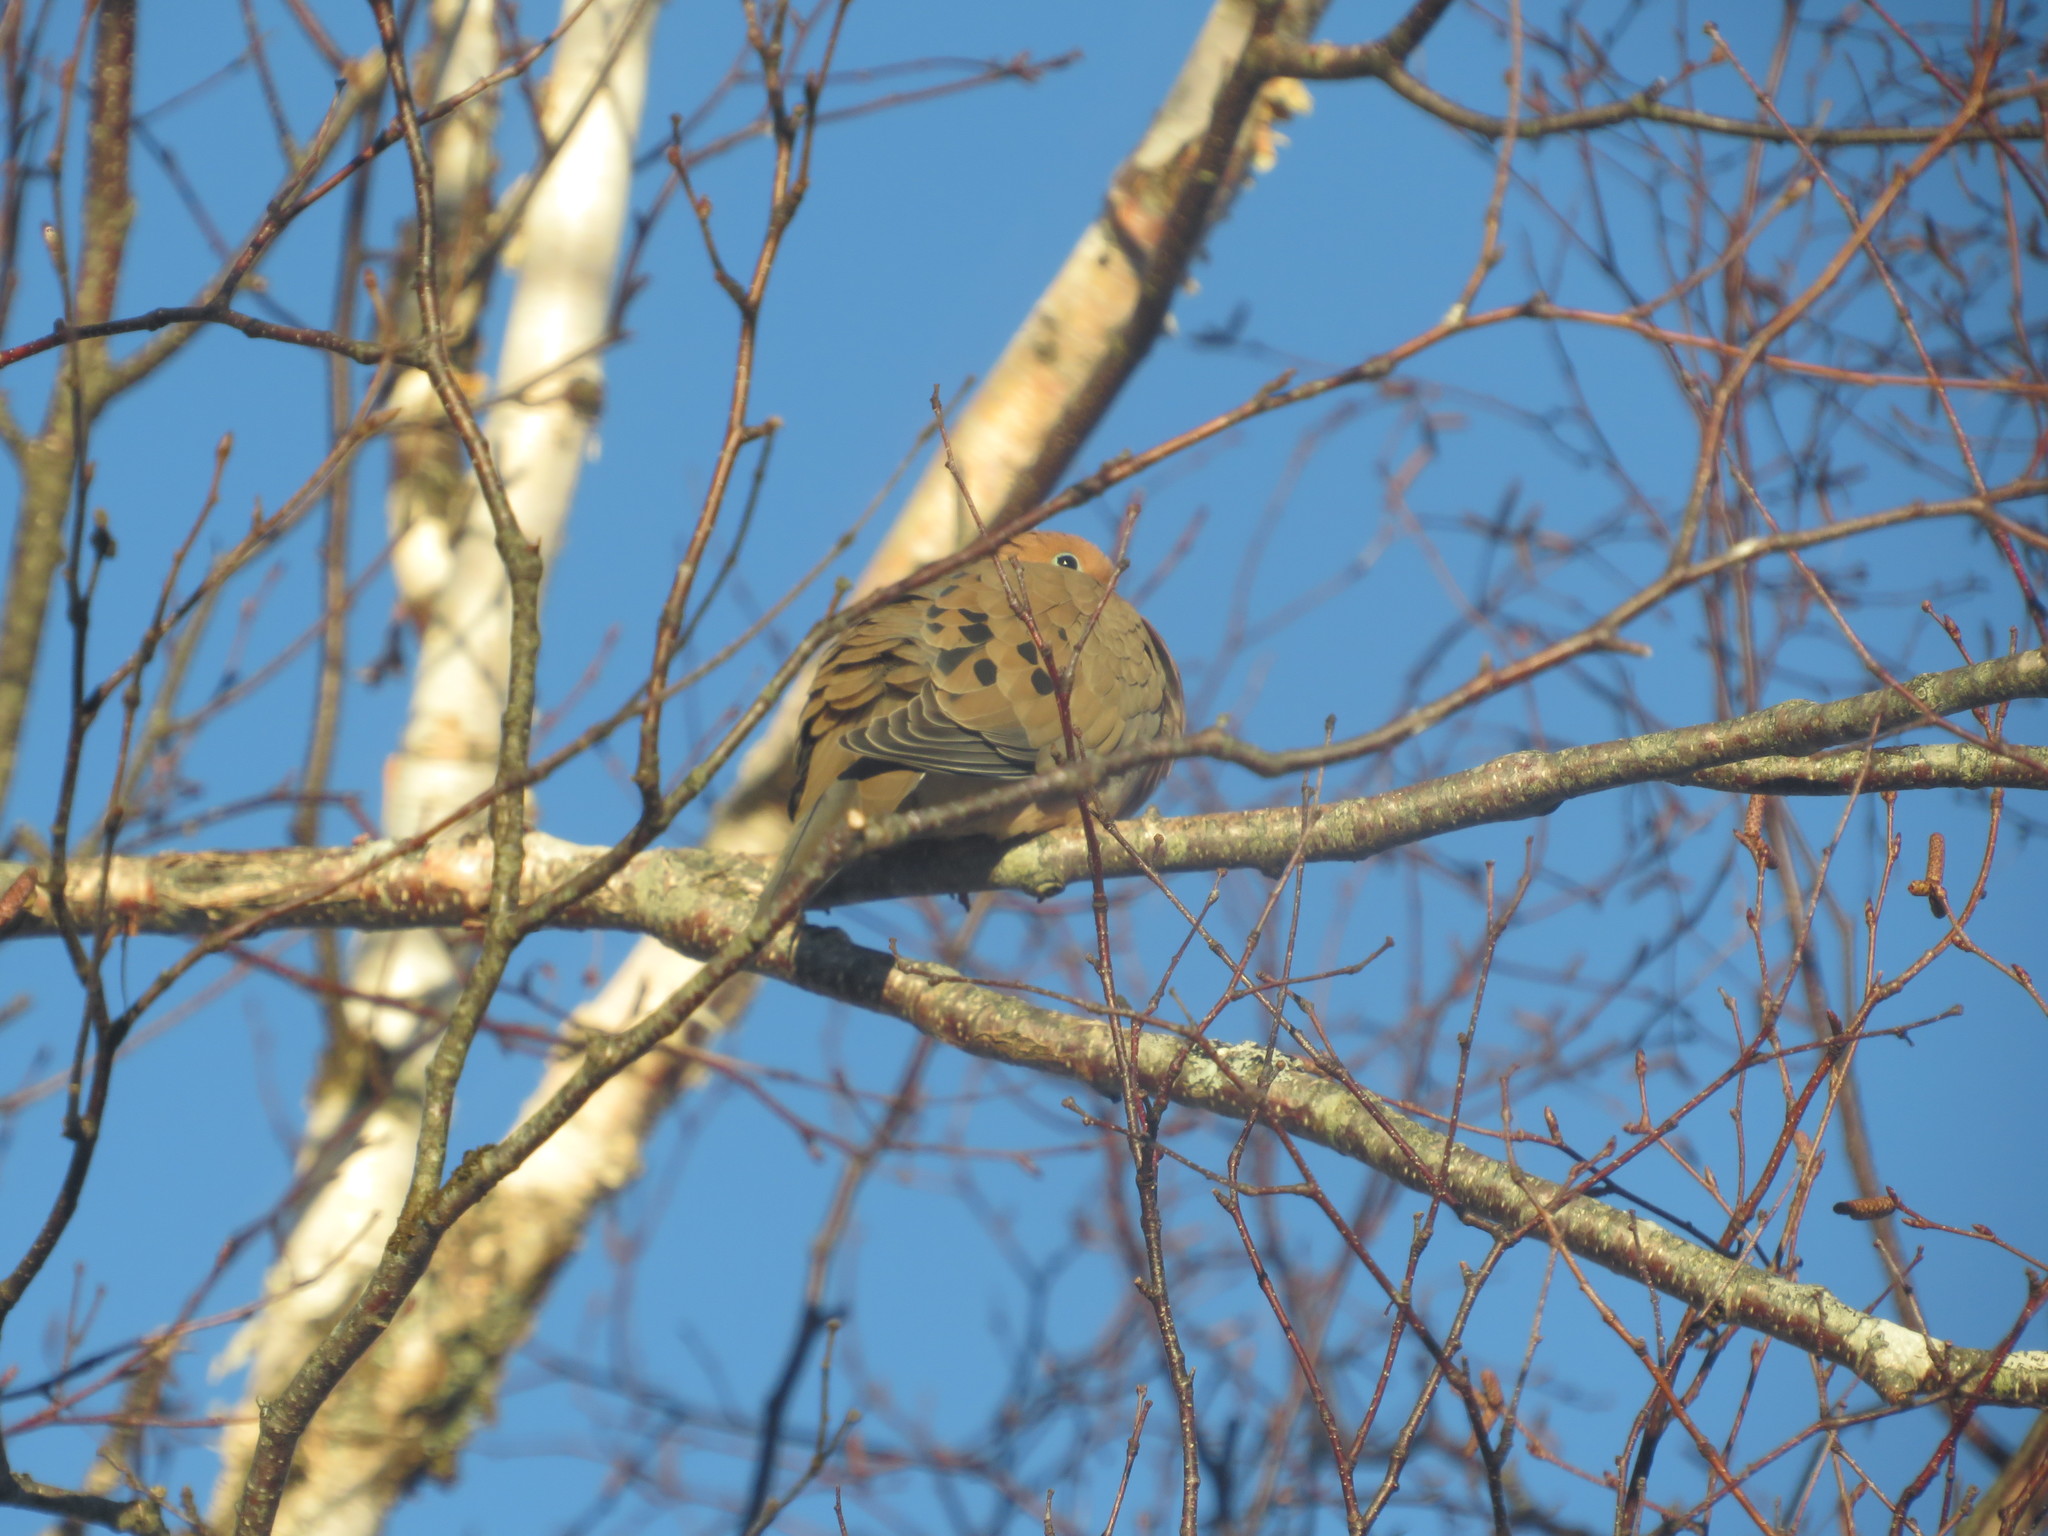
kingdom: Animalia
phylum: Chordata
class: Aves
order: Columbiformes
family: Columbidae
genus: Zenaida
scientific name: Zenaida macroura
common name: Mourning dove
